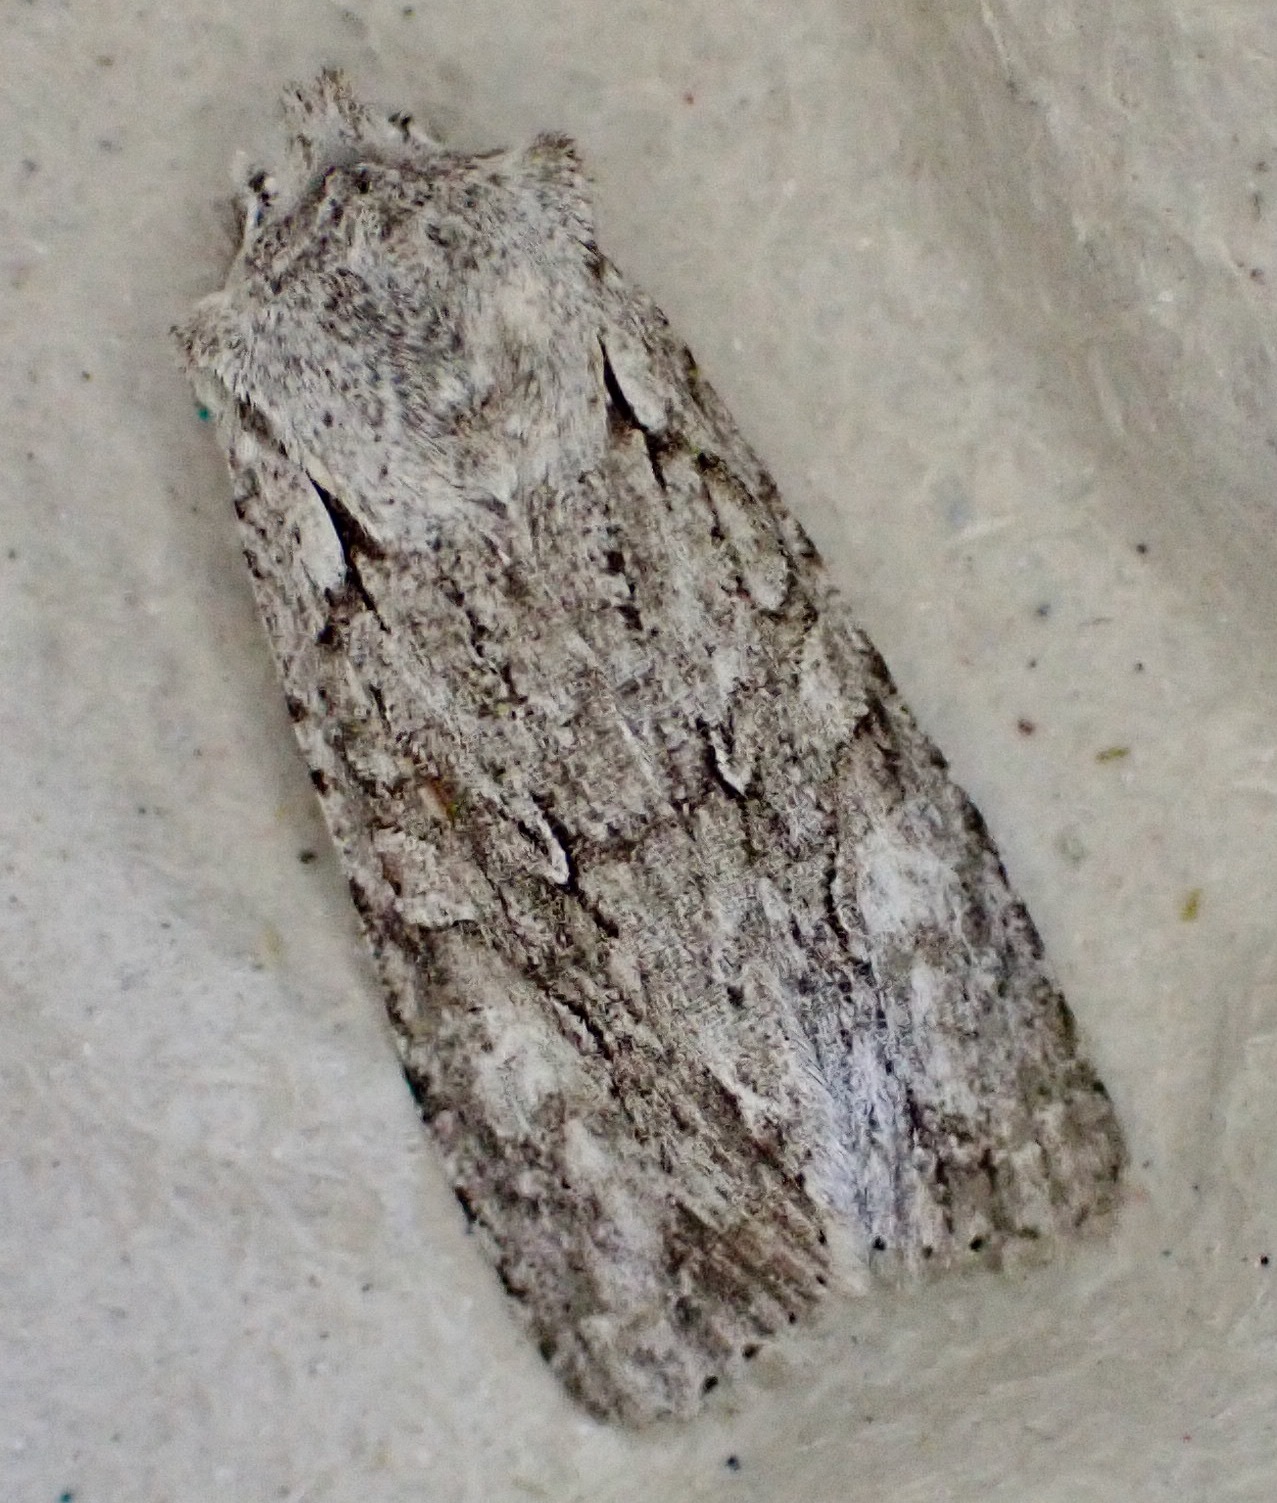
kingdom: Animalia
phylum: Arthropoda
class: Insecta
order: Lepidoptera
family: Noctuidae
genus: Lithophane
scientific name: Lithophane ornitopus
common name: Grey shoulder-knot
